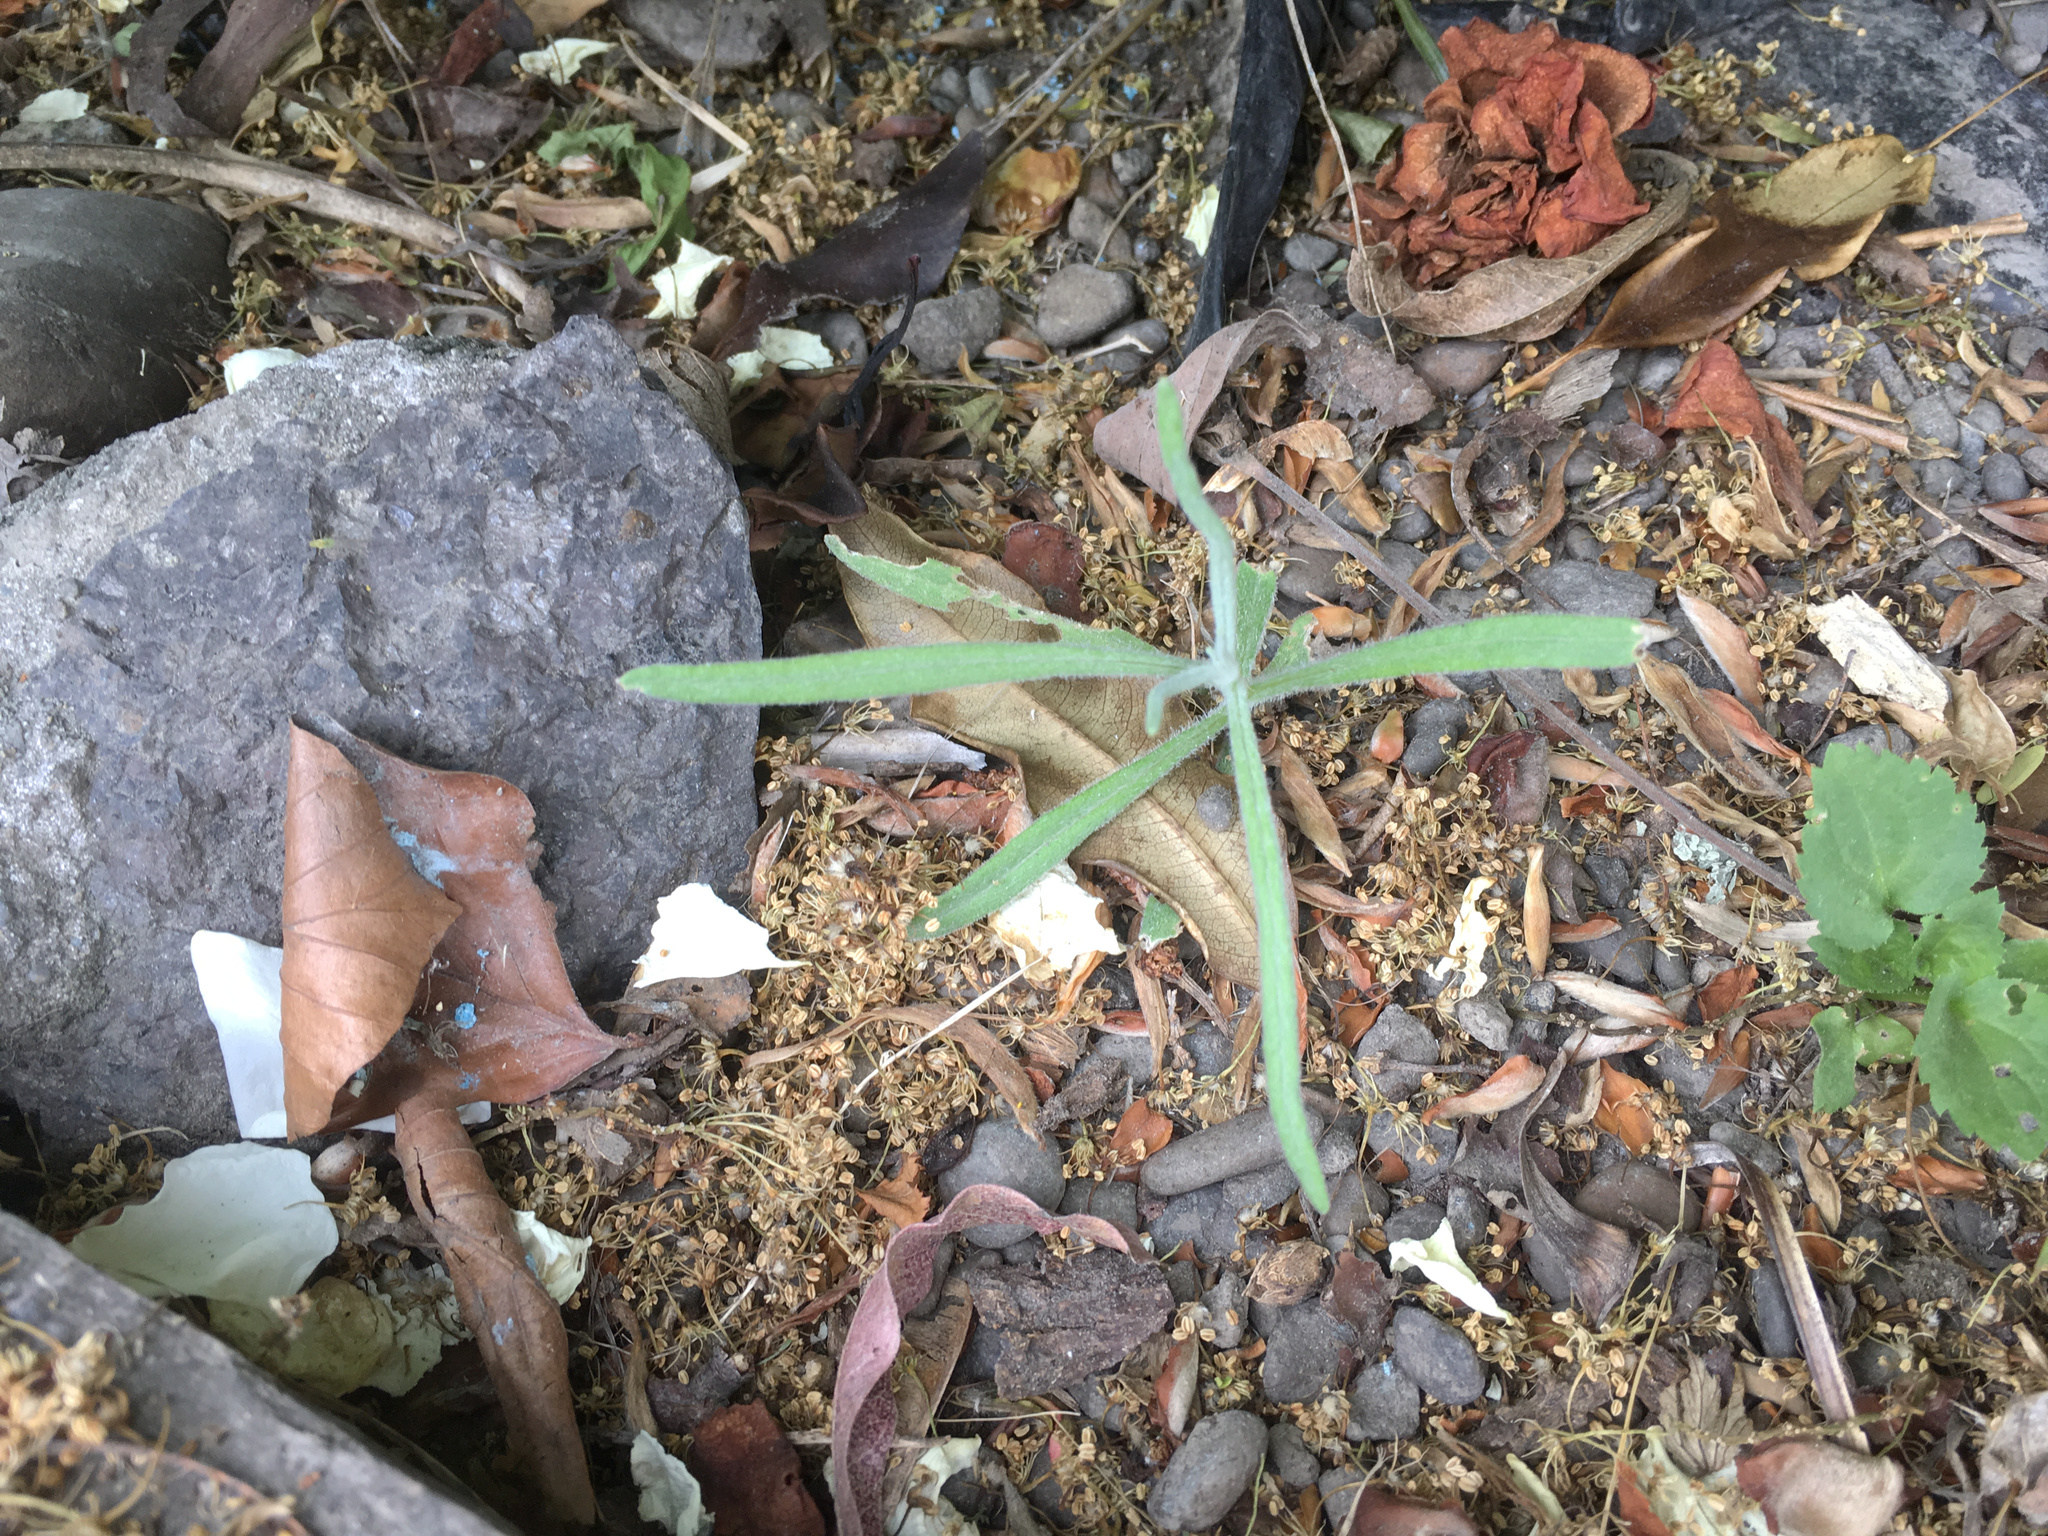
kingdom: Plantae
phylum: Tracheophyta
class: Magnoliopsida
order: Asterales
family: Asteraceae
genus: Senecio
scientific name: Senecio quadridentatus
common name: Cotton fireweed
